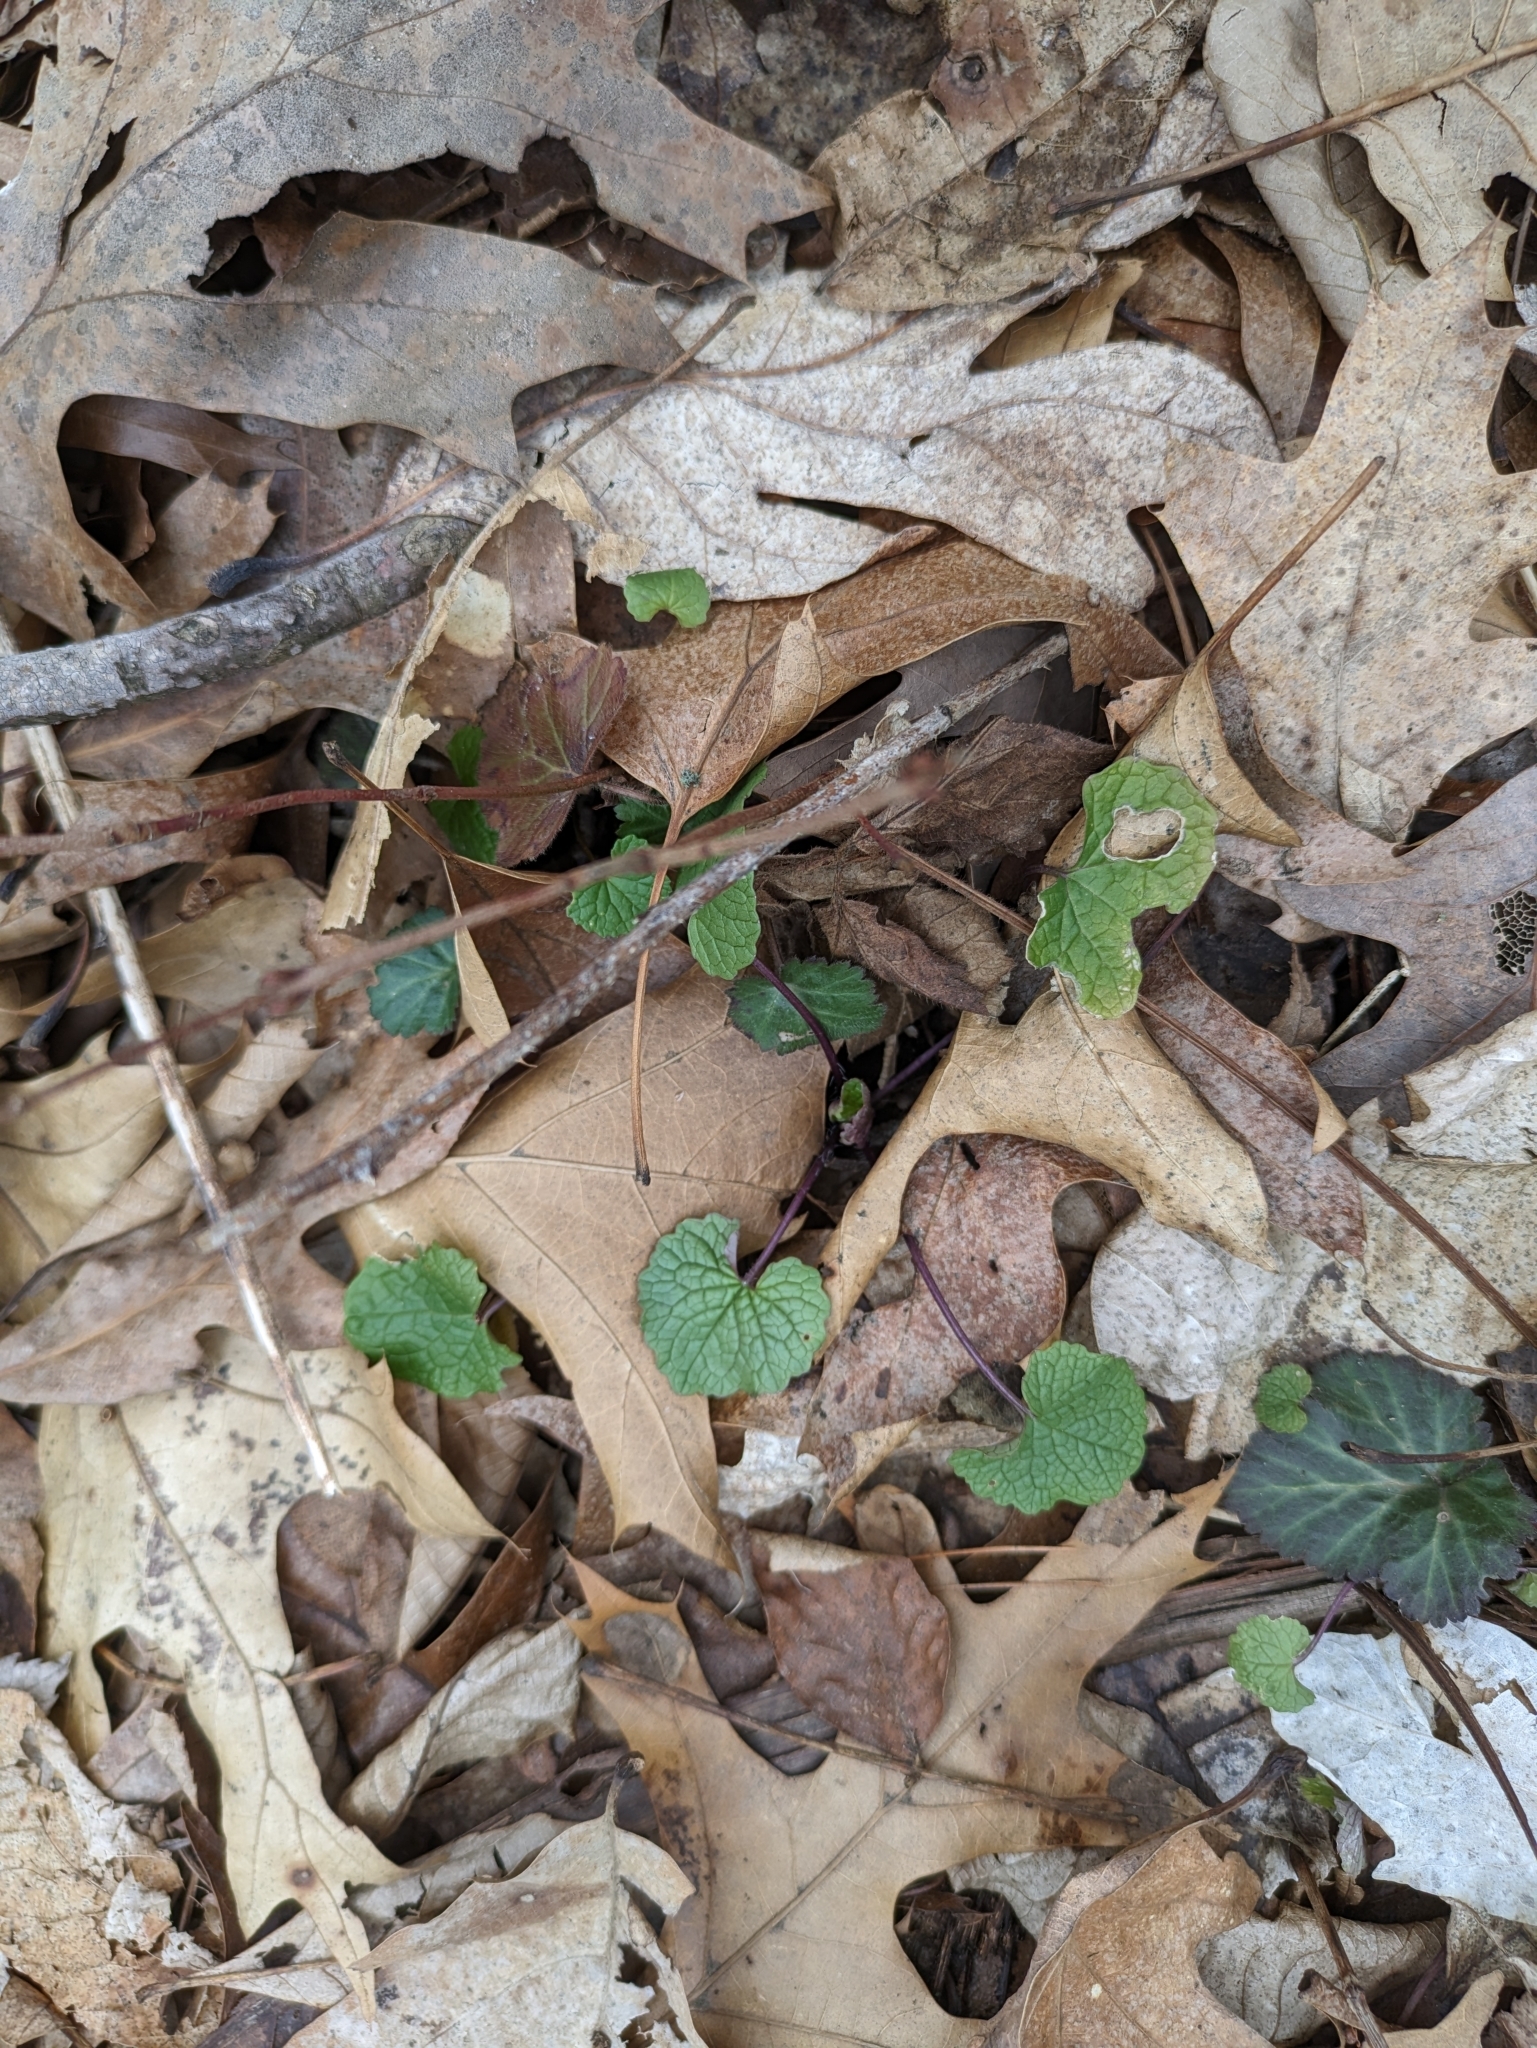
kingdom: Plantae
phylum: Tracheophyta
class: Magnoliopsida
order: Brassicales
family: Brassicaceae
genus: Alliaria
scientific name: Alliaria petiolata
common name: Garlic mustard
